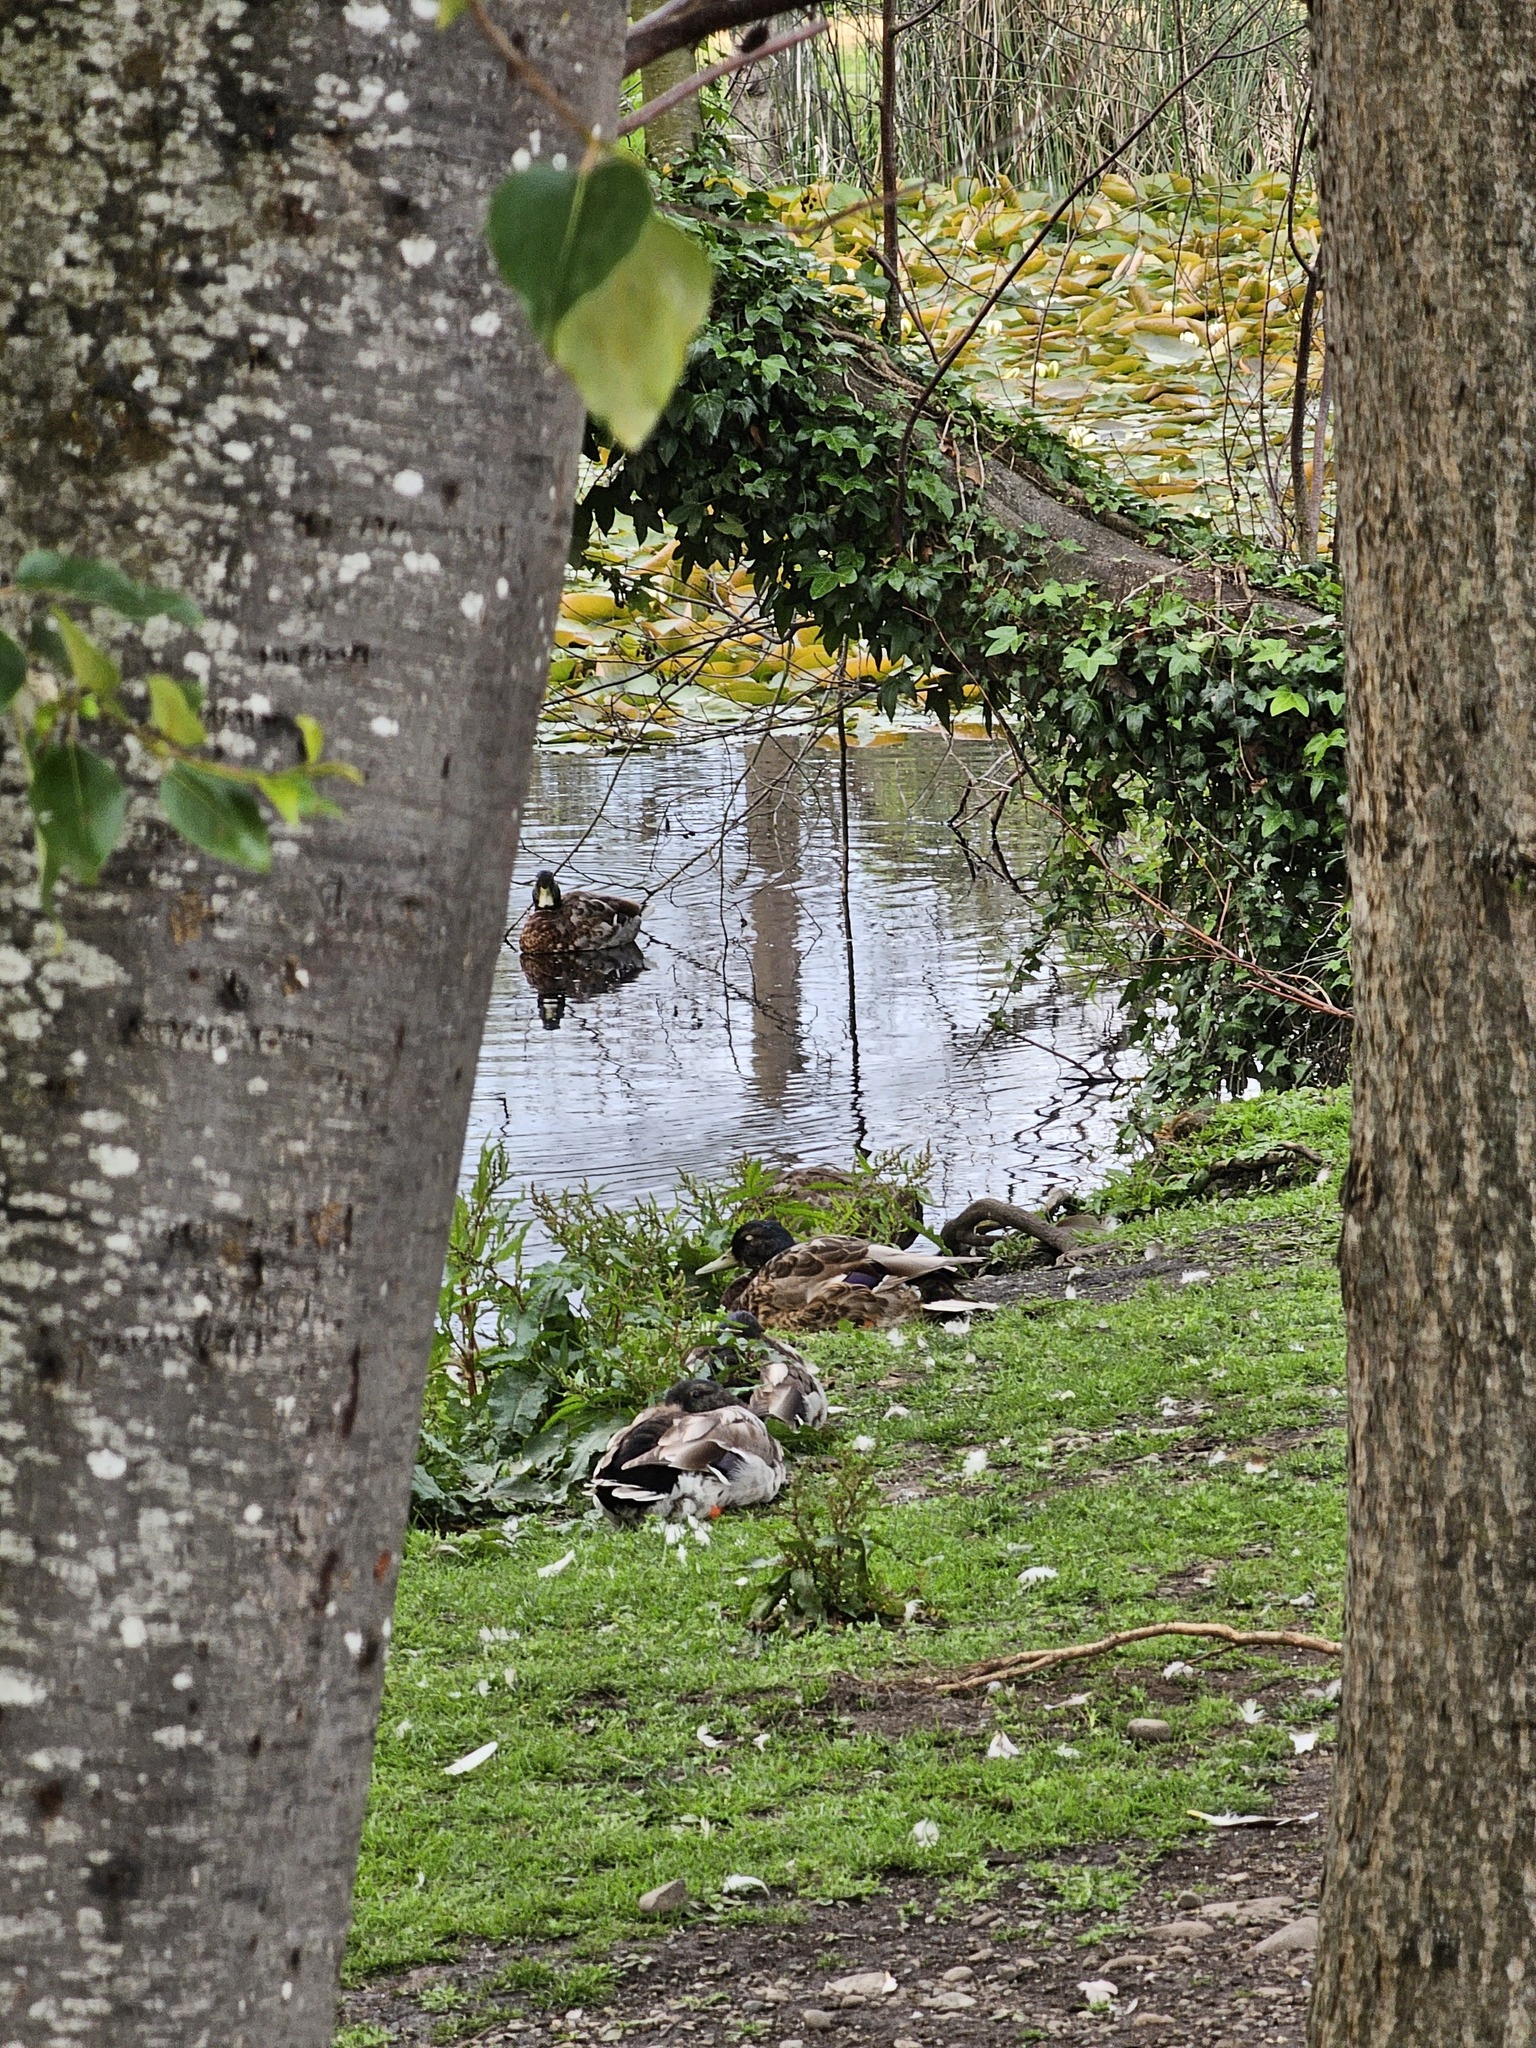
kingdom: Animalia
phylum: Chordata
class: Aves
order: Anseriformes
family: Anatidae
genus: Anas
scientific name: Anas platyrhynchos
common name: Mallard
